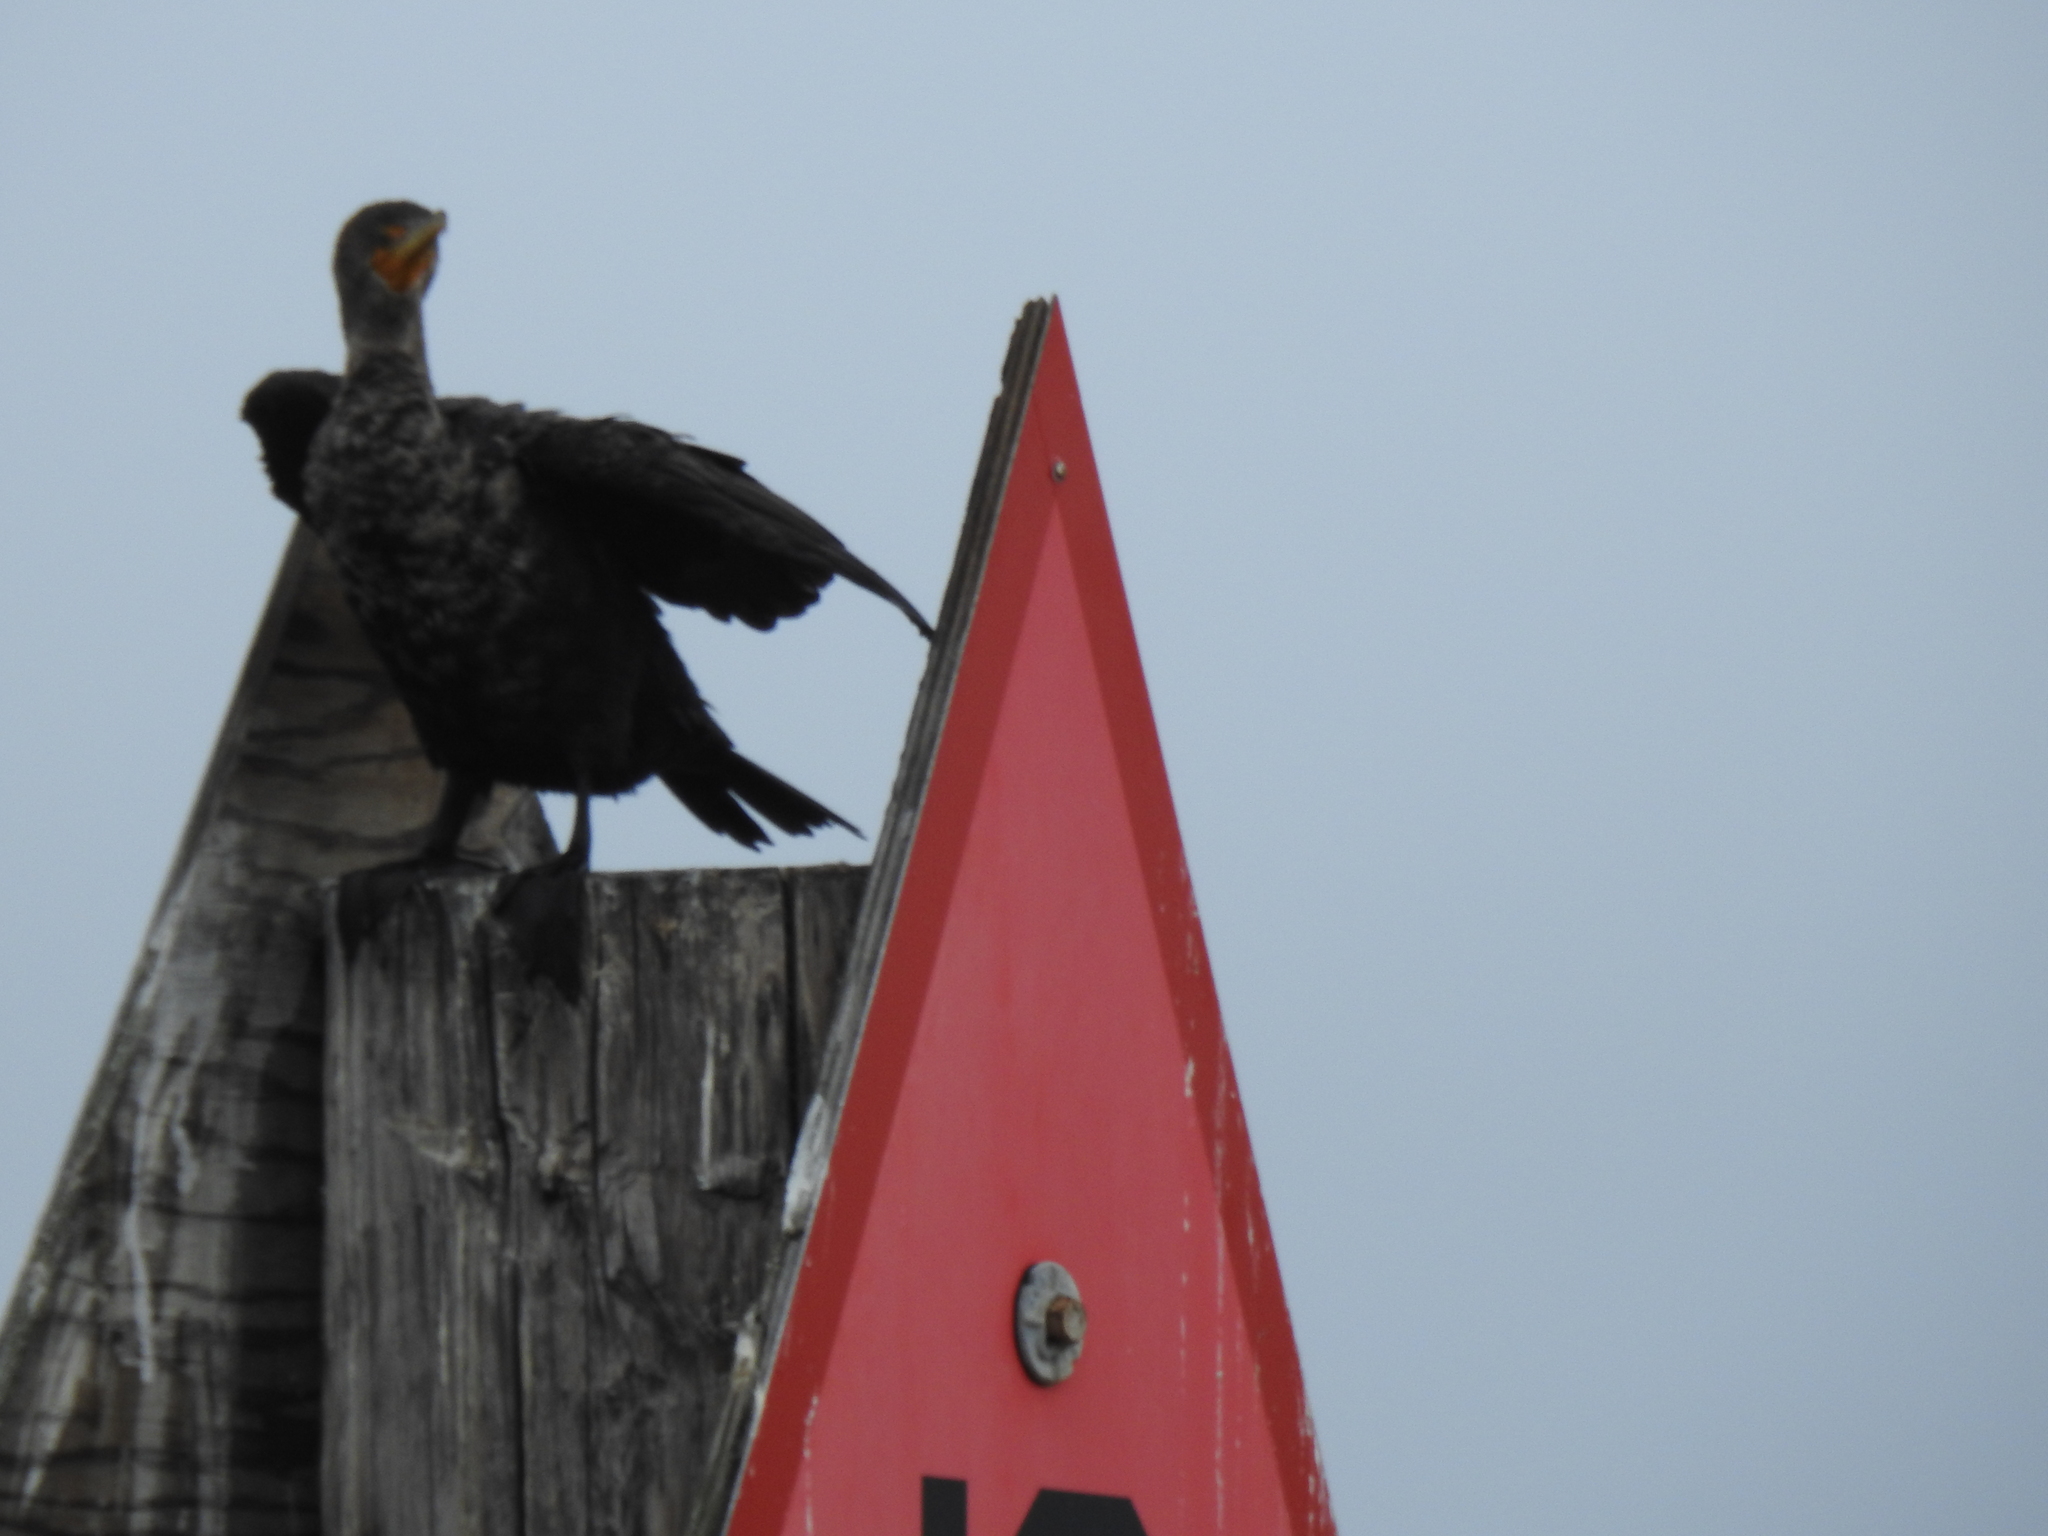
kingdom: Animalia
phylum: Chordata
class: Aves
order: Suliformes
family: Phalacrocoracidae
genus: Phalacrocorax
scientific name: Phalacrocorax auritus
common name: Double-crested cormorant
